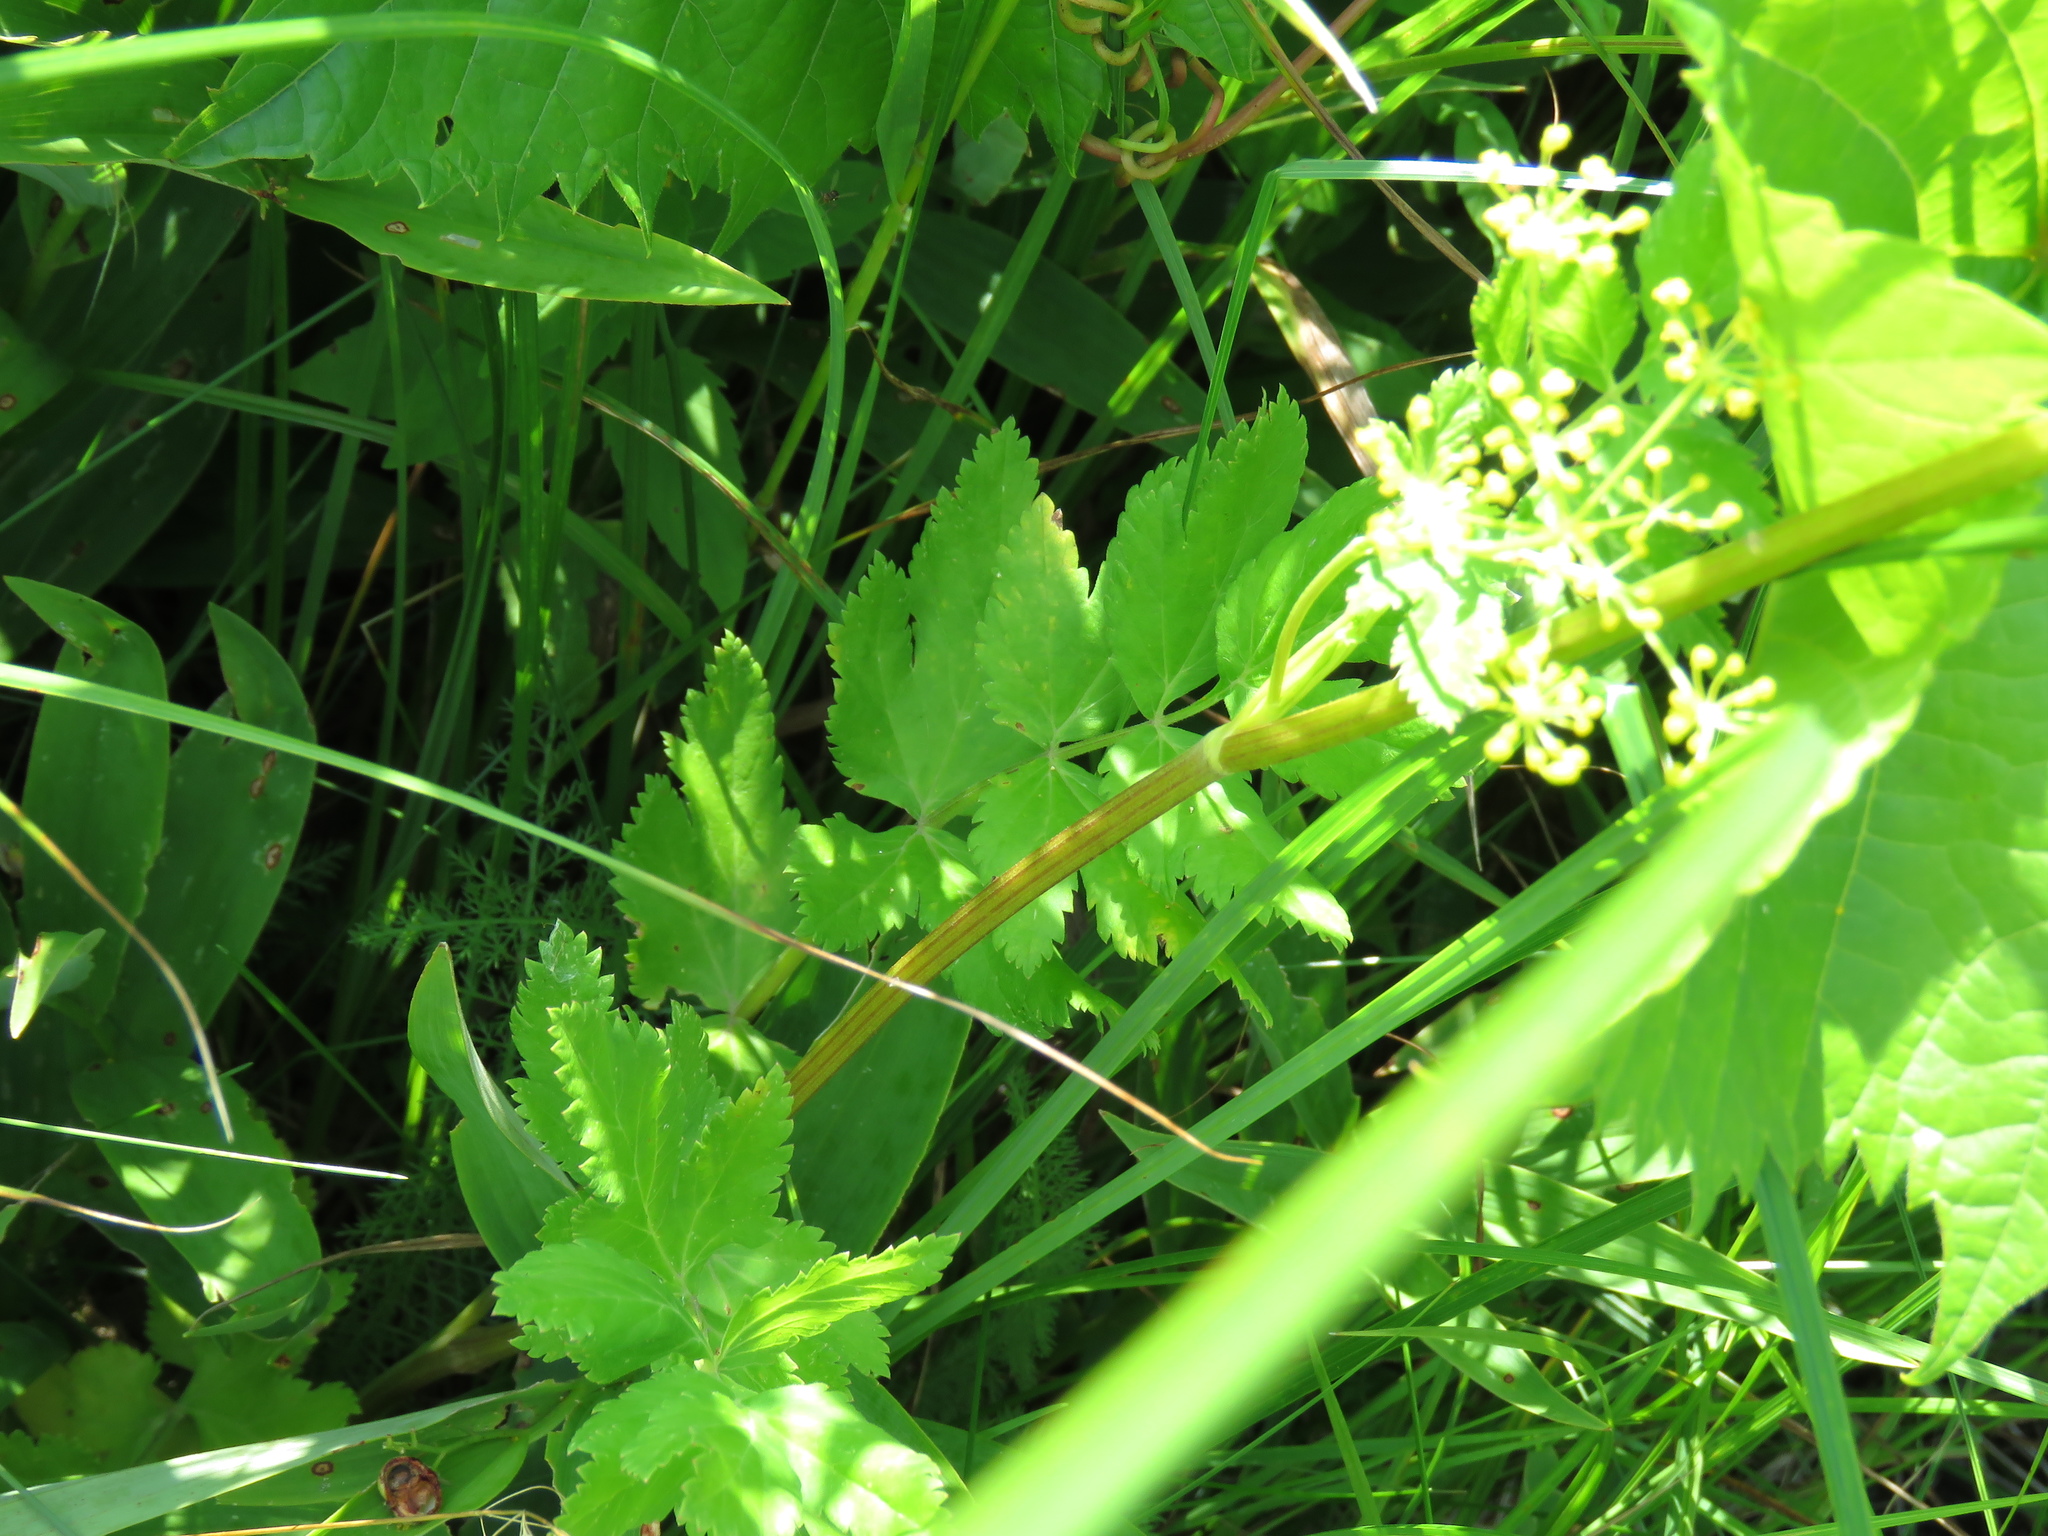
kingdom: Plantae
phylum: Tracheophyta
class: Magnoliopsida
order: Apiales
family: Apiaceae
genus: Pastinaca
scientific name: Pastinaca sativa
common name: Wild parsnip
